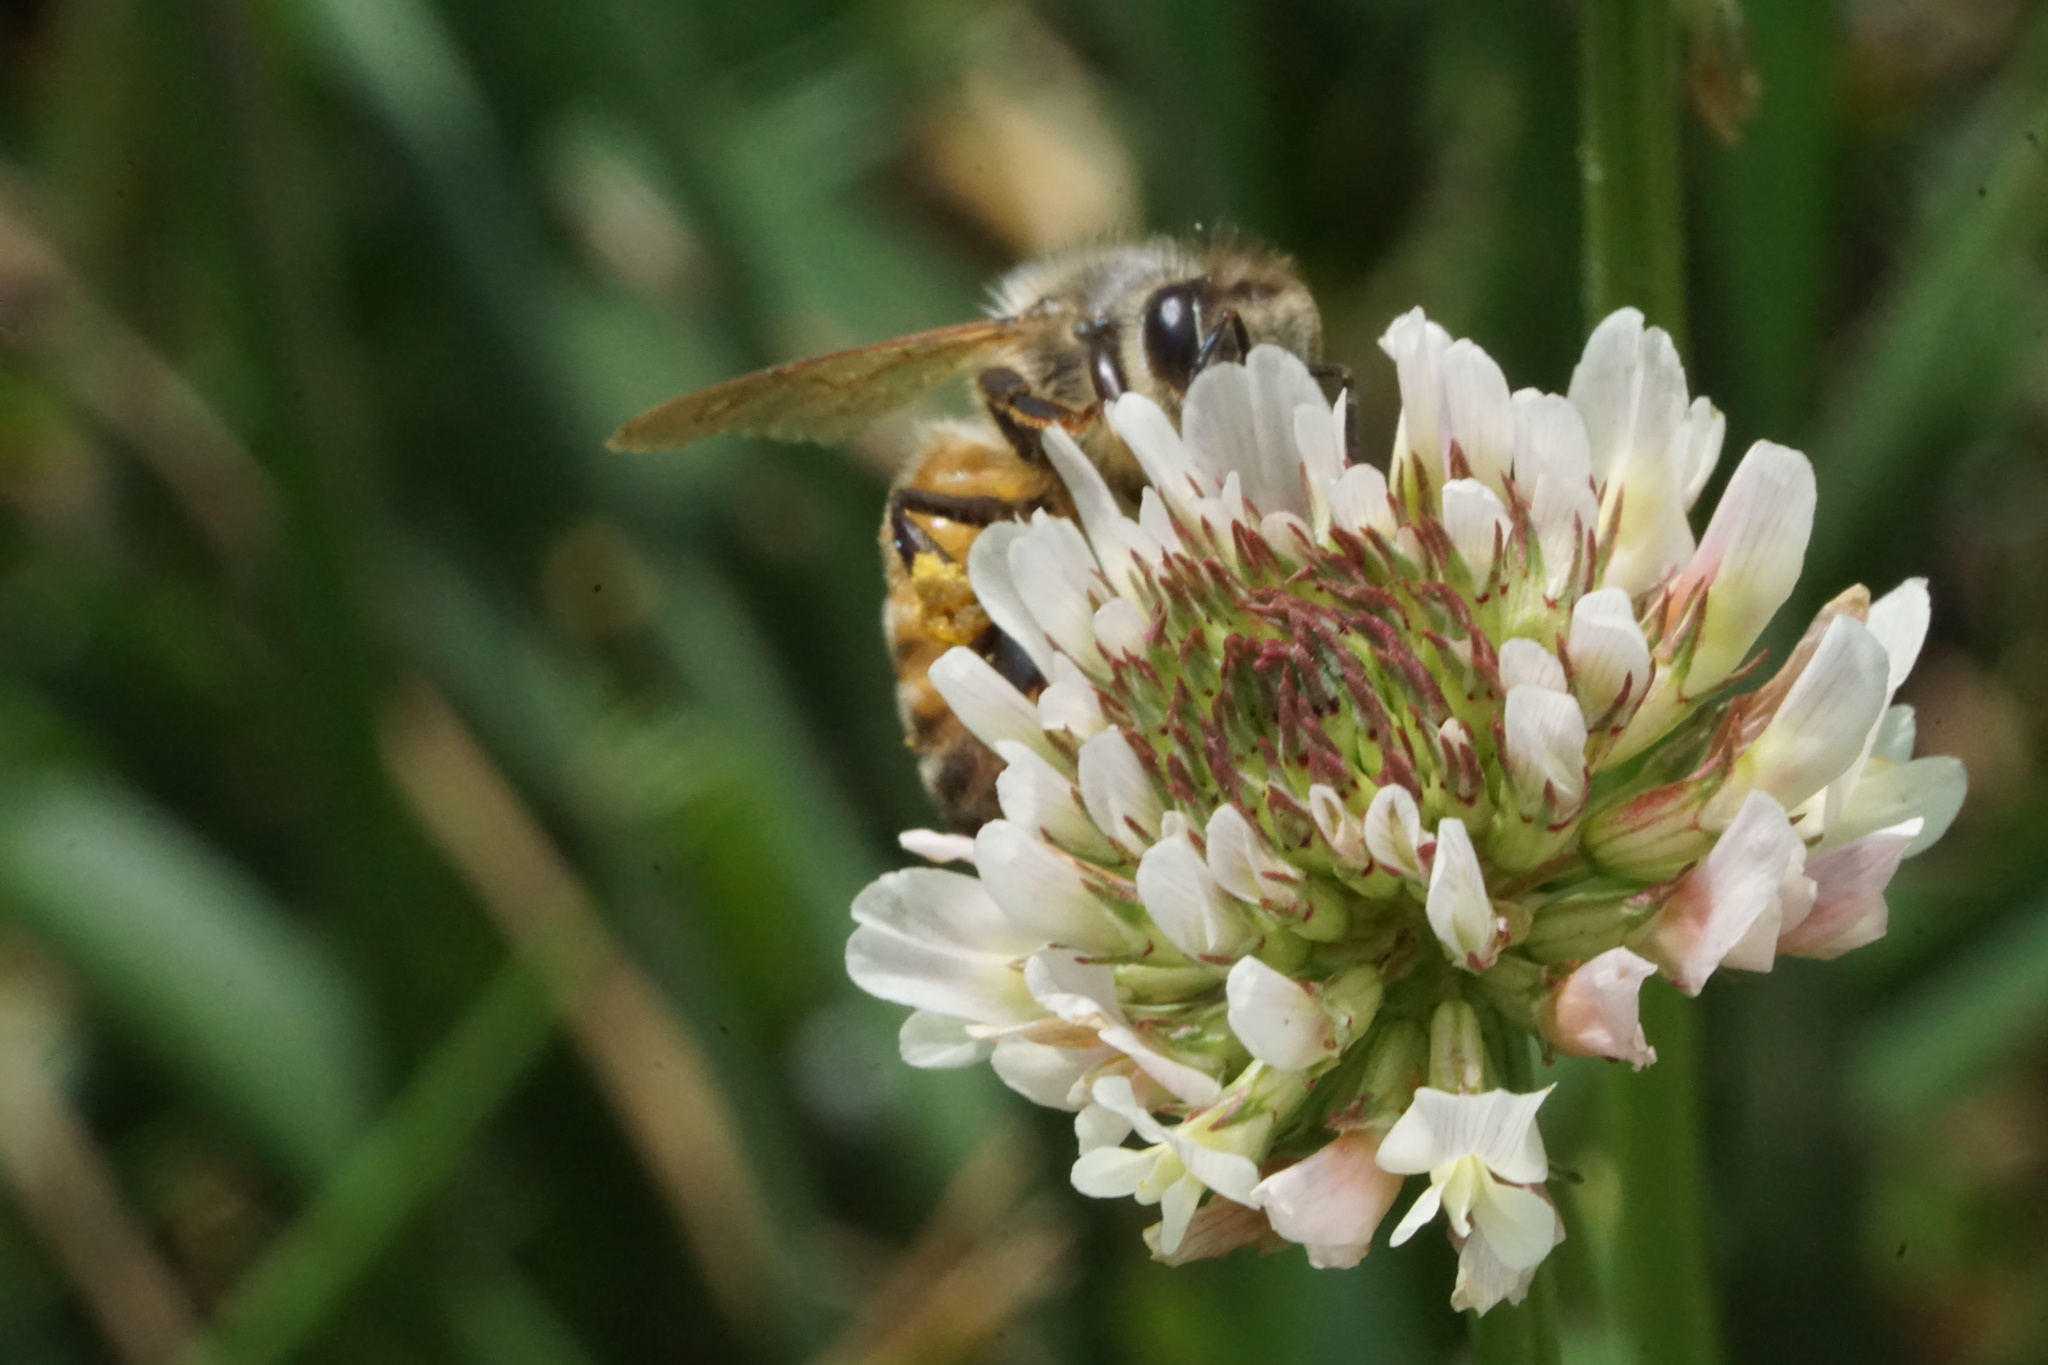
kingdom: Animalia
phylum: Arthropoda
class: Insecta
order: Hymenoptera
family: Apidae
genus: Apis
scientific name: Apis mellifera
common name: Honey bee
